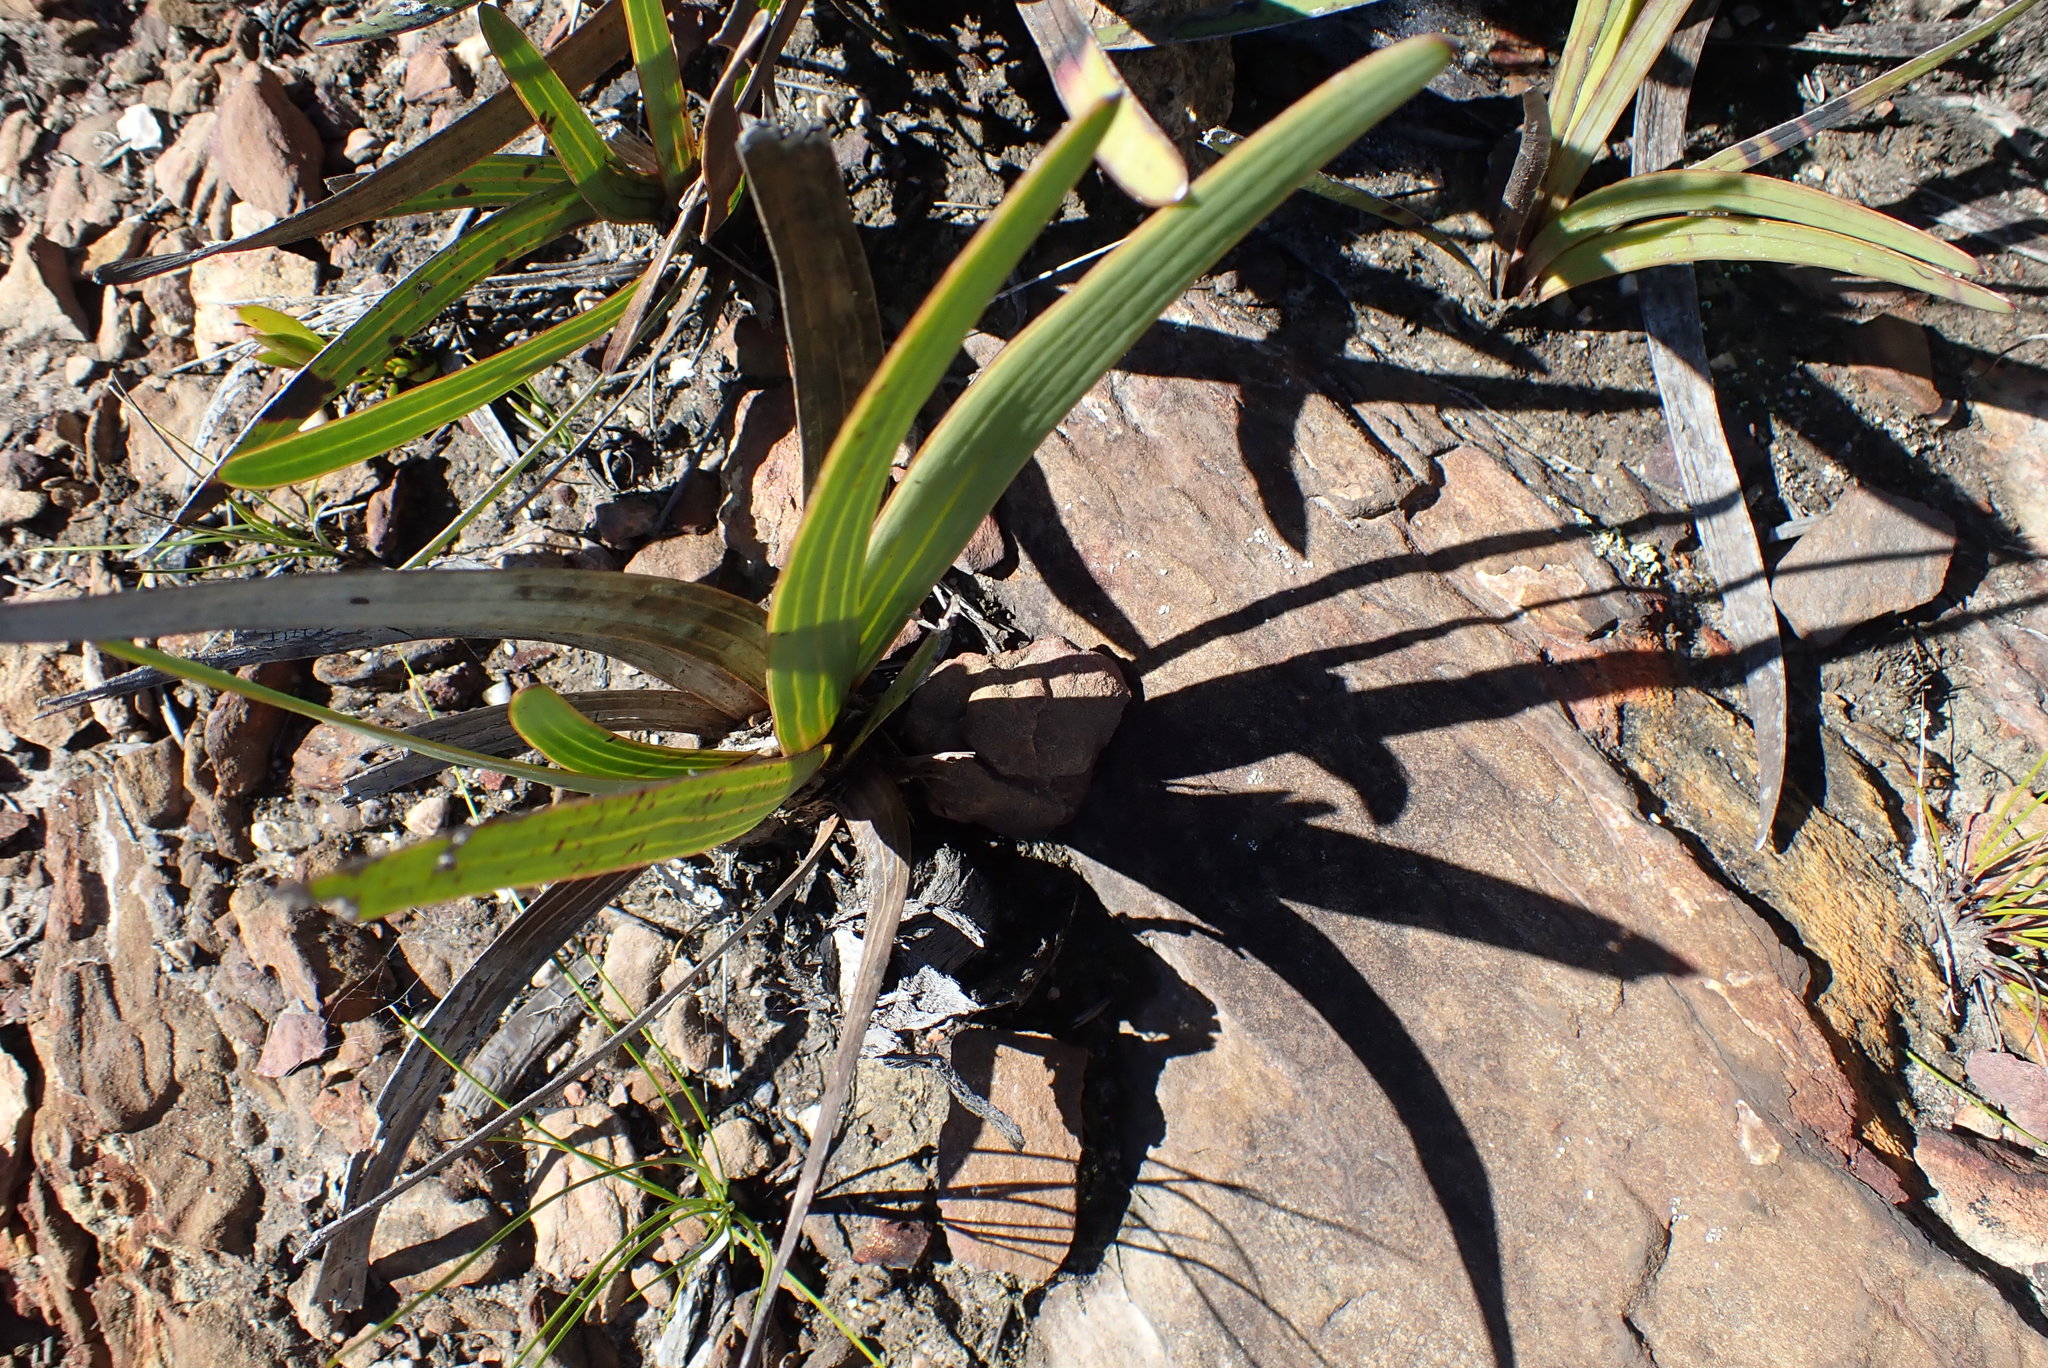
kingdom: Plantae
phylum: Tracheophyta
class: Magnoliopsida
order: Asterales
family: Asteraceae
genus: Corymbium
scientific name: Corymbium glabrum
